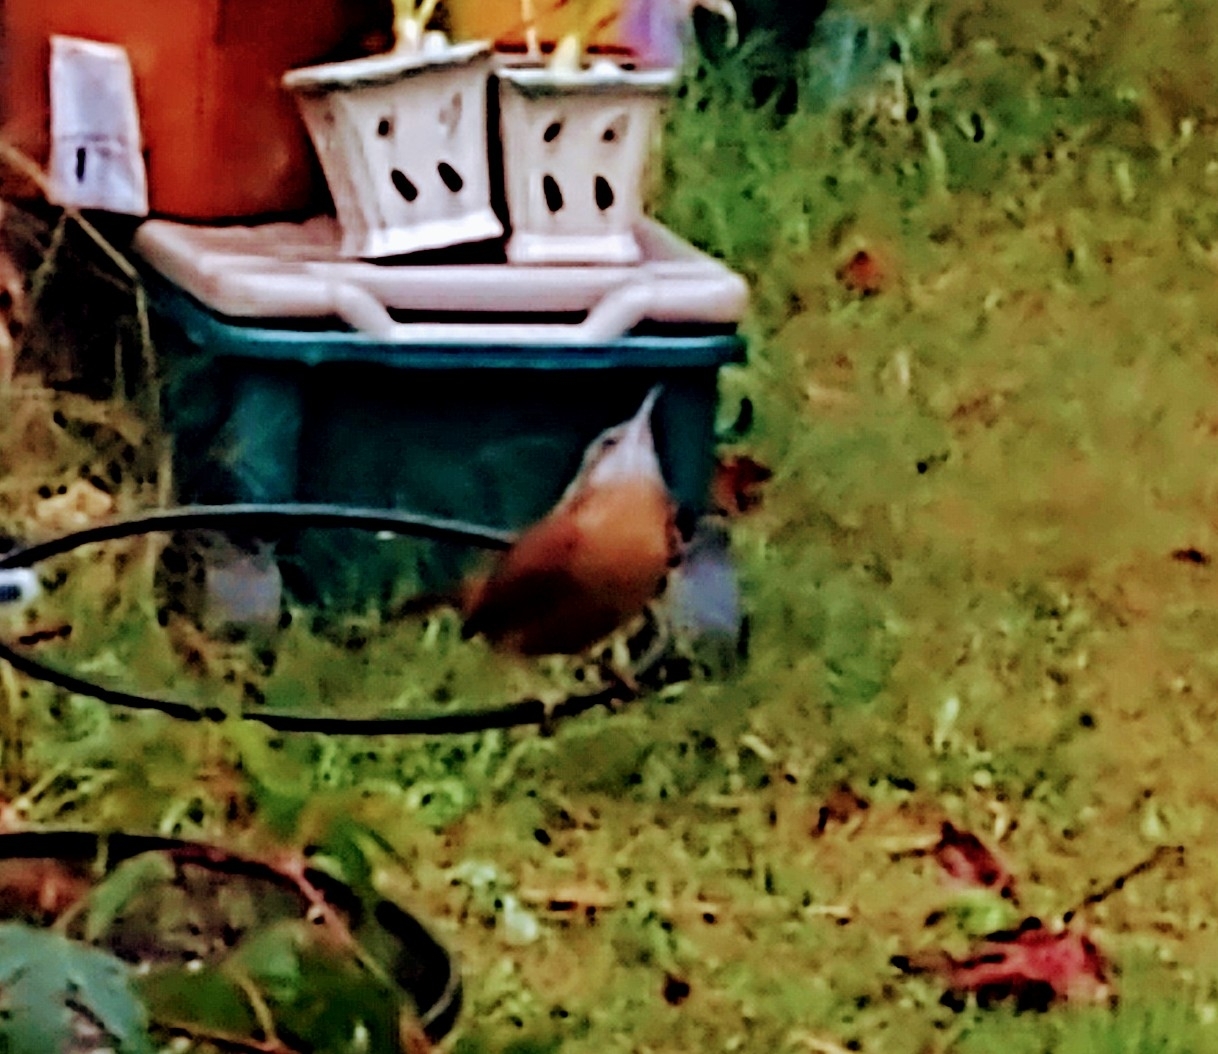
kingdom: Animalia
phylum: Chordata
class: Aves
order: Passeriformes
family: Troglodytidae
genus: Thryothorus
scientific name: Thryothorus ludovicianus
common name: Carolina wren
